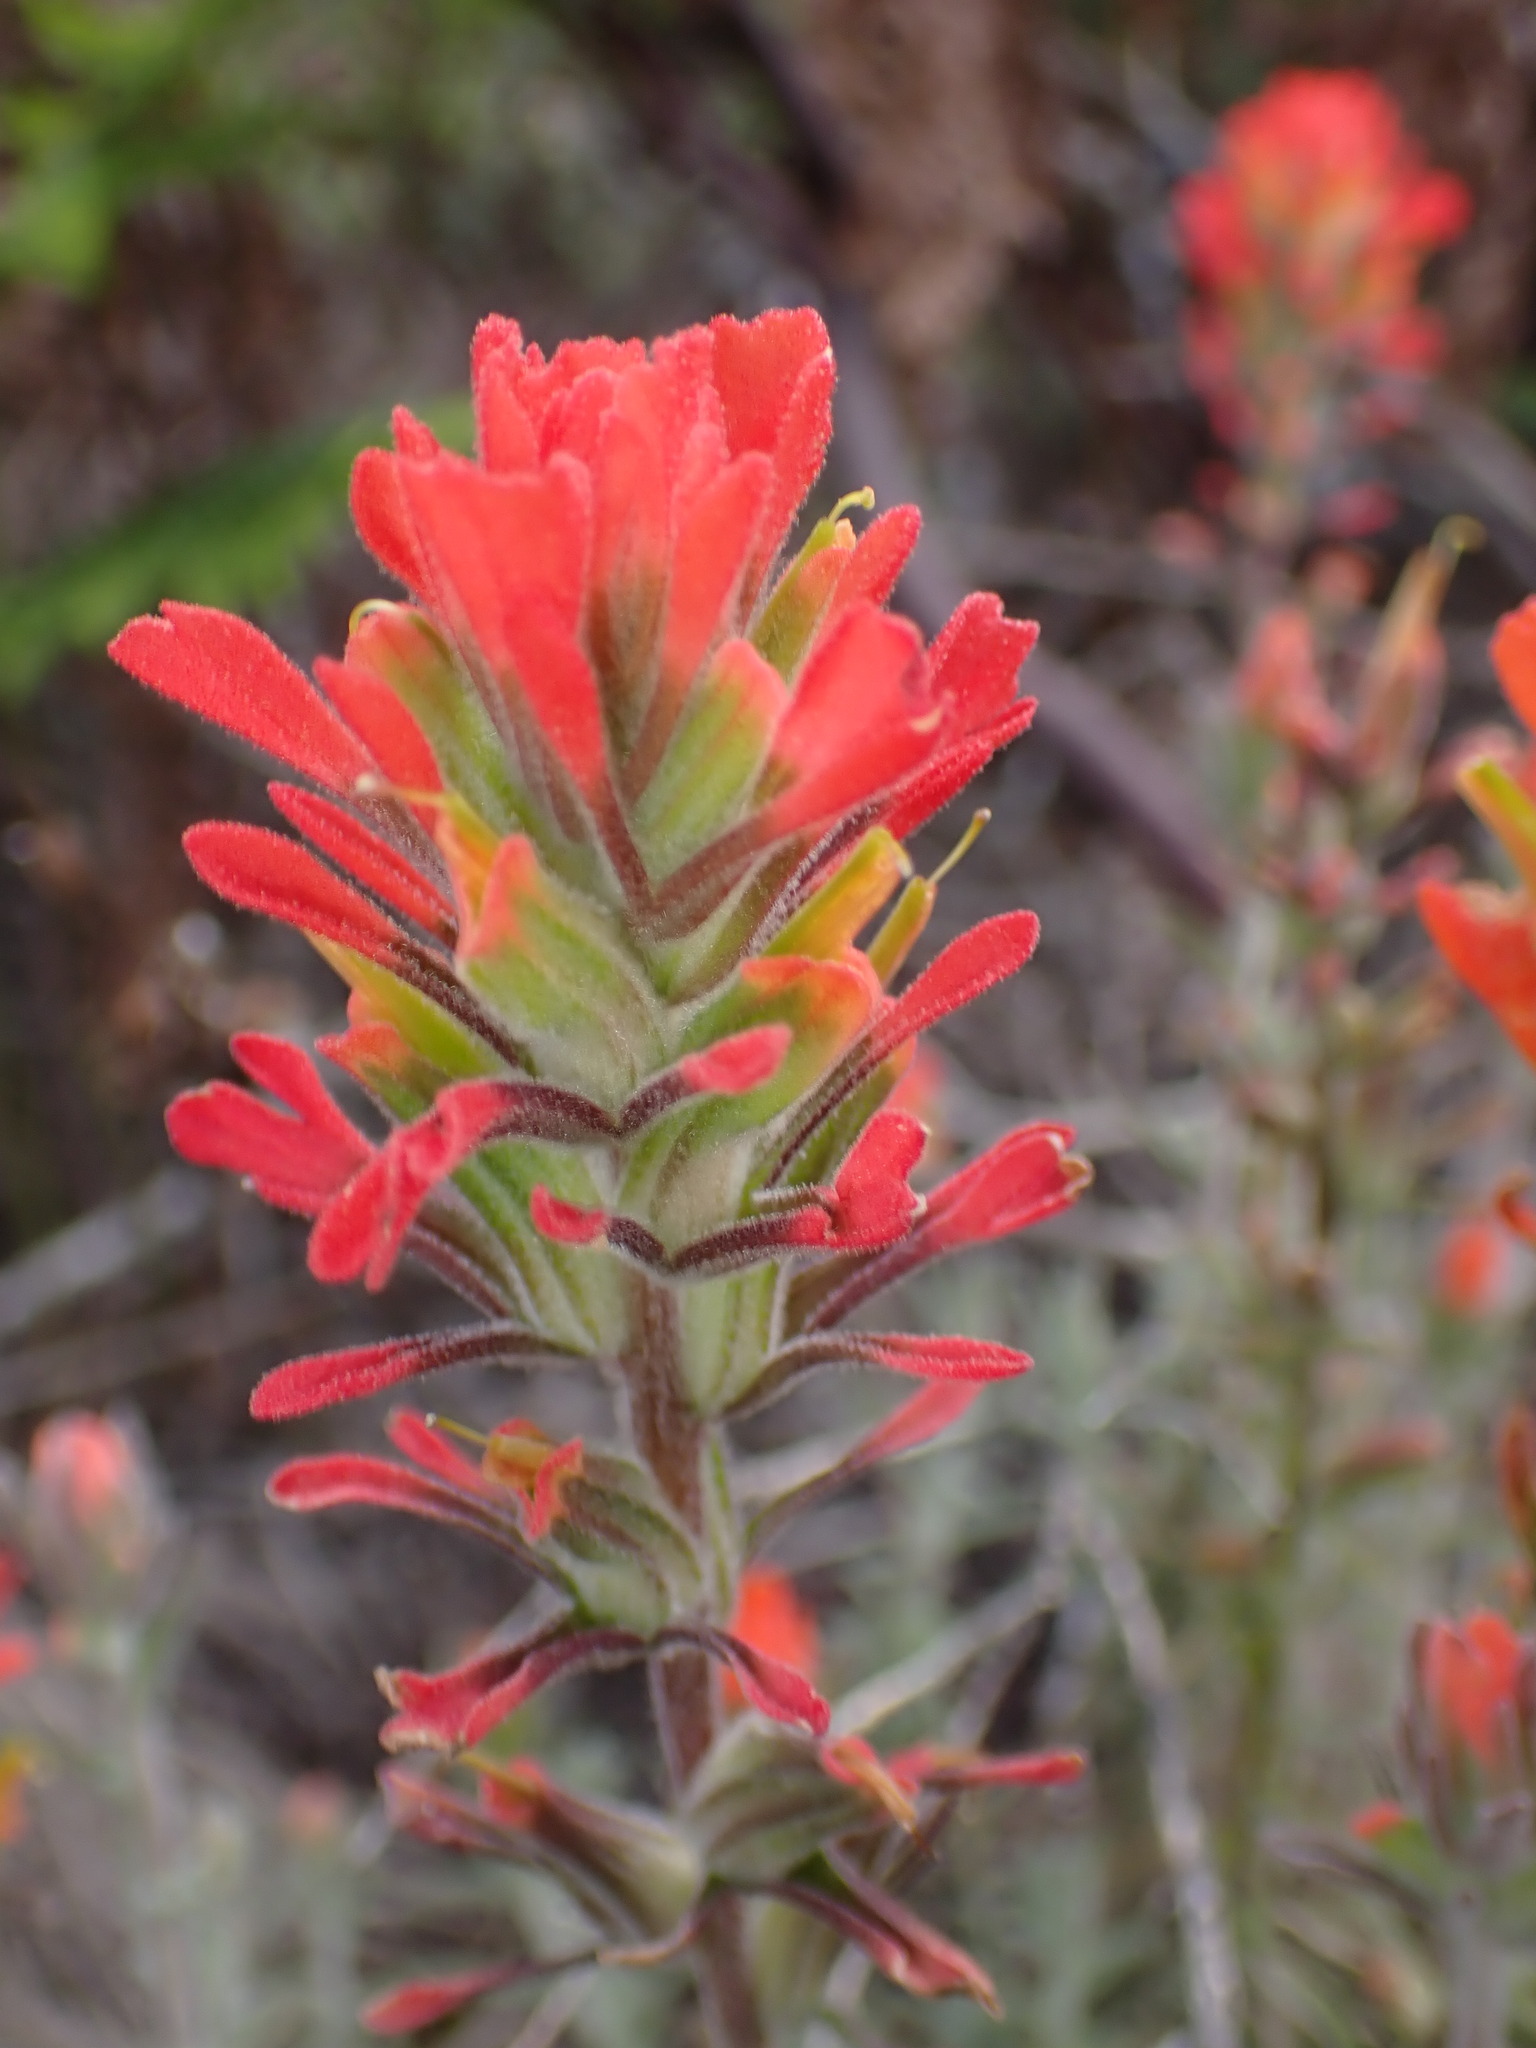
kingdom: Plantae
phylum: Tracheophyta
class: Magnoliopsida
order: Lamiales
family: Orobanchaceae
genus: Castilleja
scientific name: Castilleja foliolosa
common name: Woolly indian paintbrush
